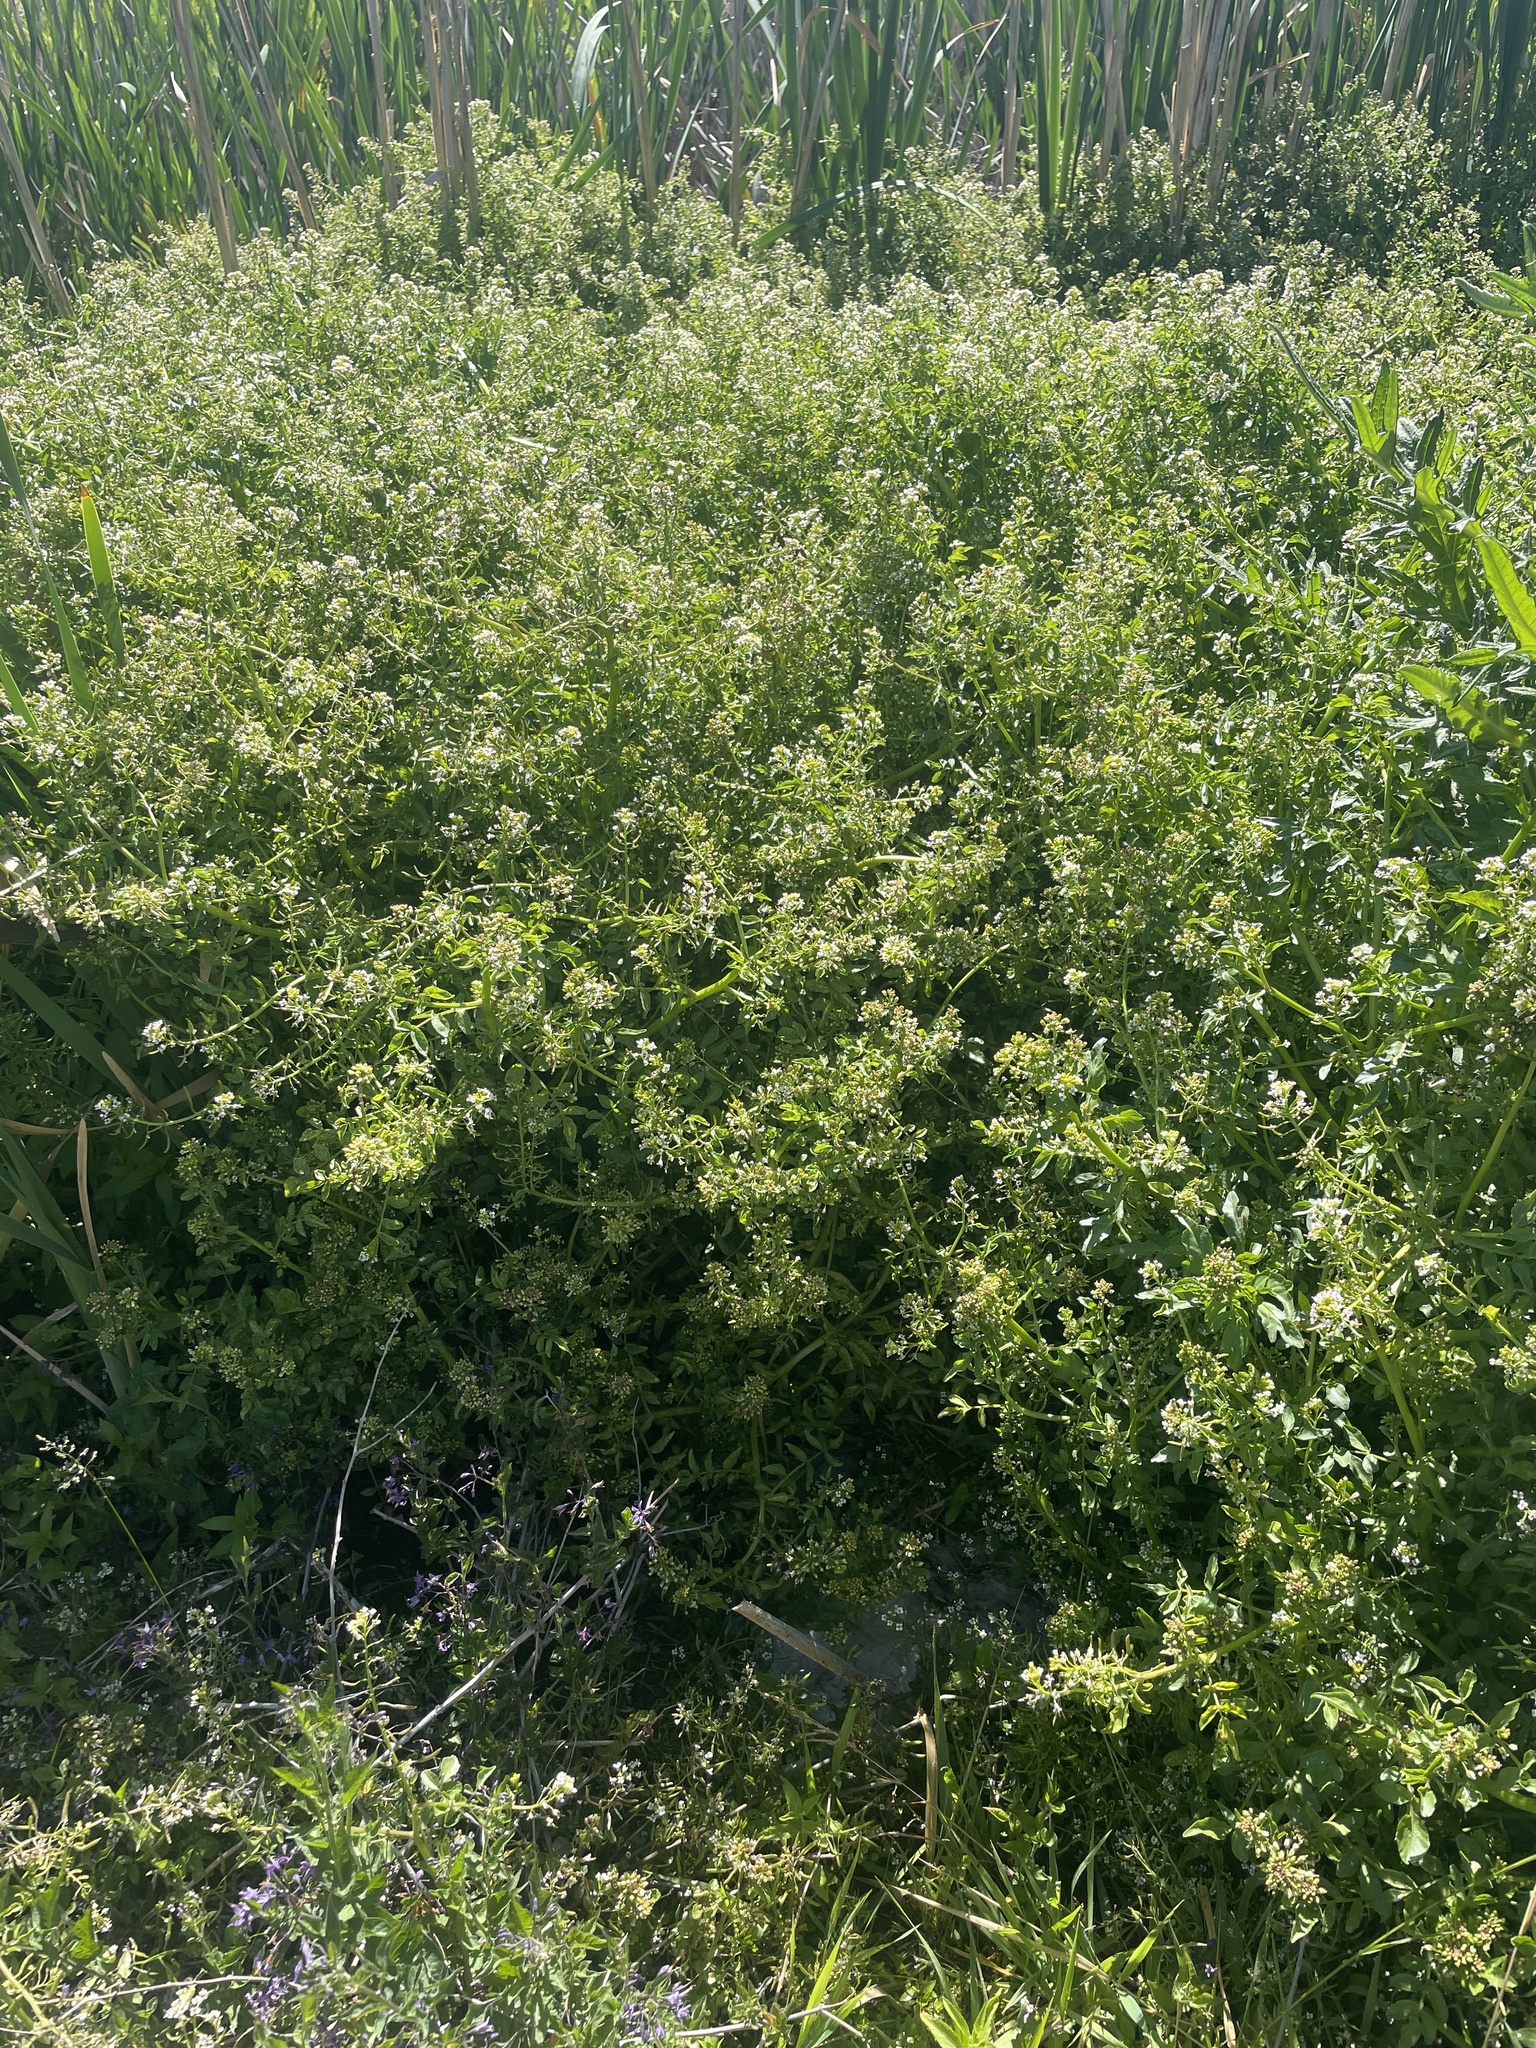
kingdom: Plantae
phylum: Tracheophyta
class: Magnoliopsida
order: Brassicales
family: Brassicaceae
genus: Nasturtium
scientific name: Nasturtium officinale
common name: Watercress
